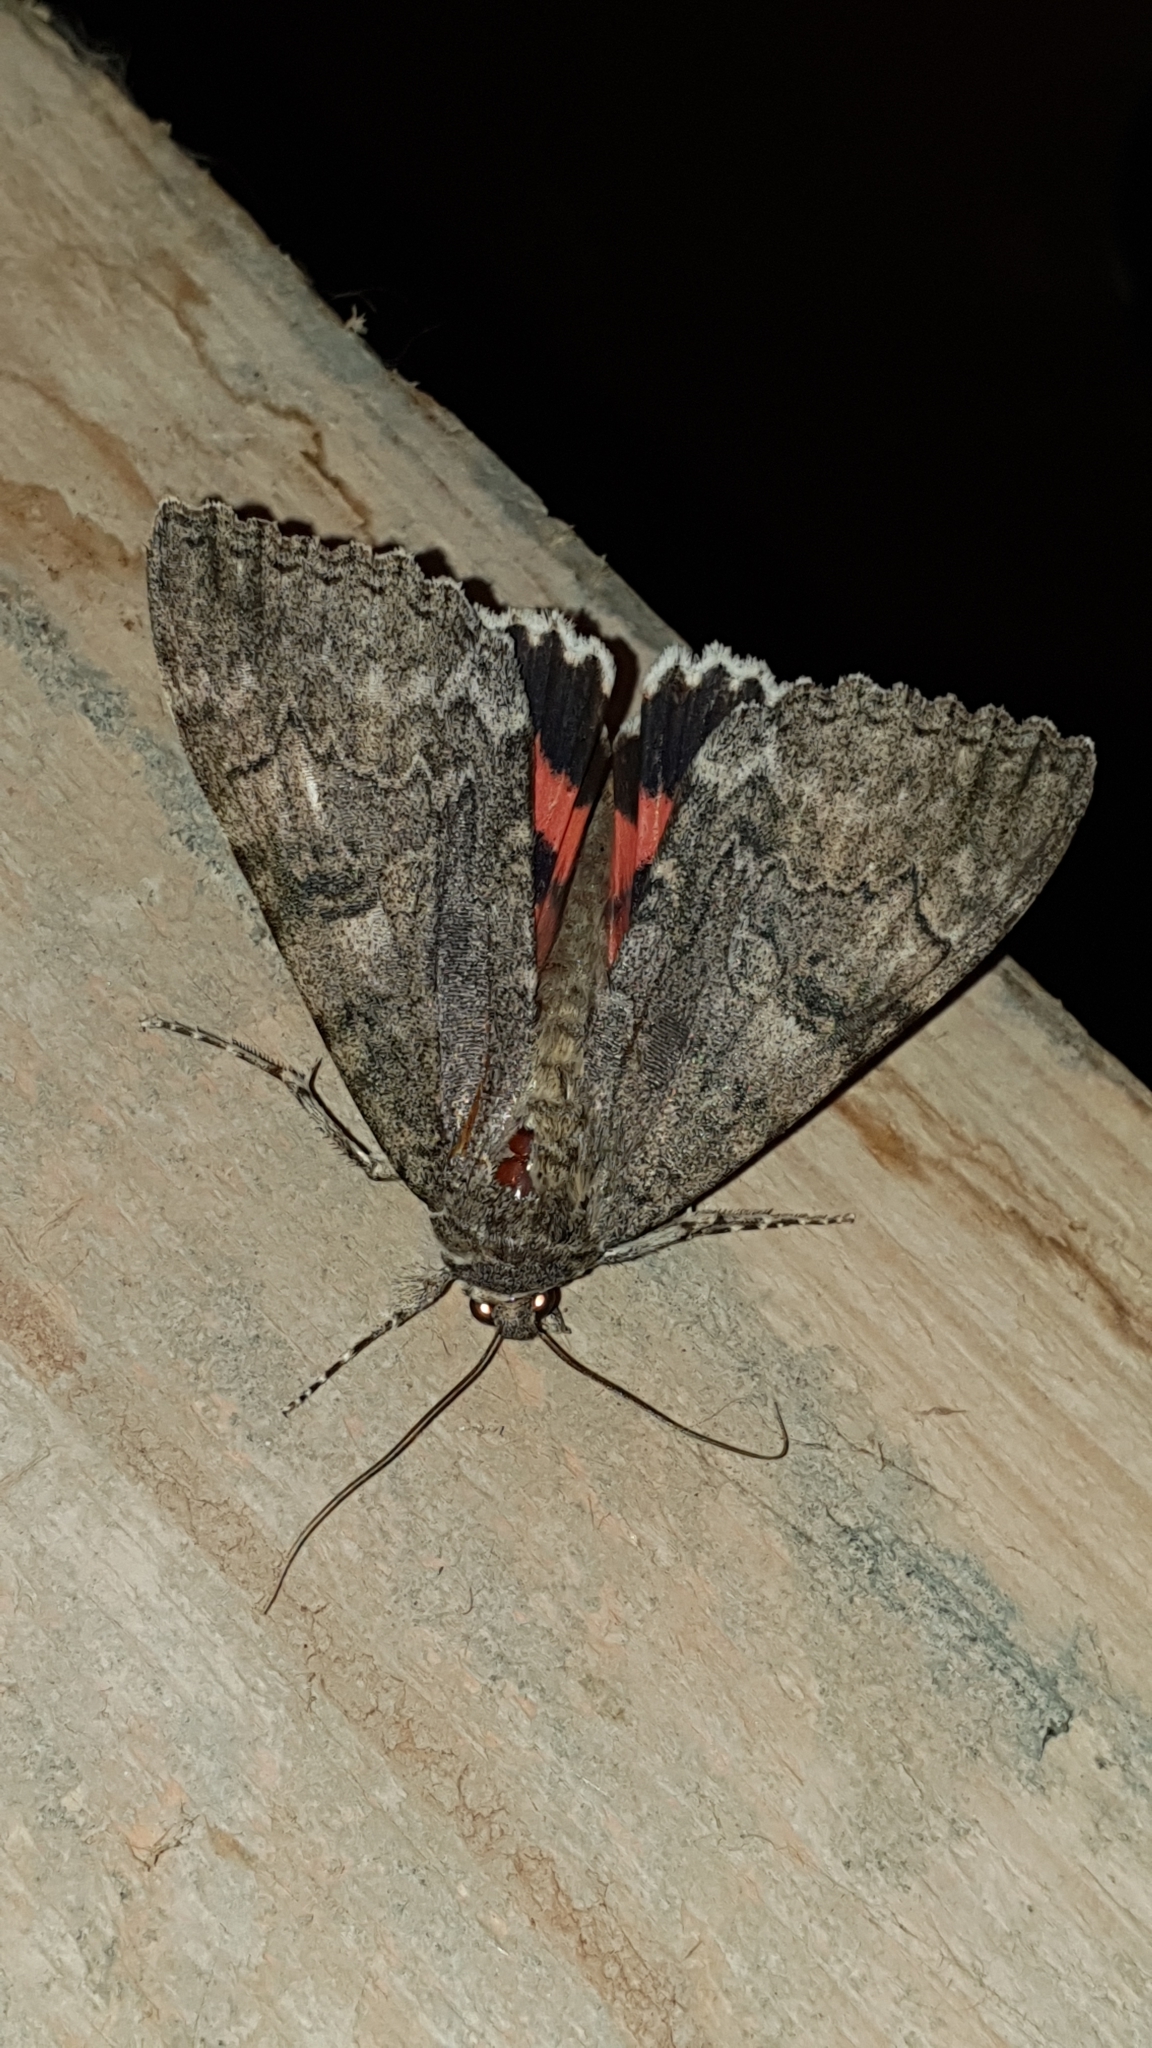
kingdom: Animalia
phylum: Arthropoda
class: Insecta
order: Lepidoptera
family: Erebidae
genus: Catocala
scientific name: Catocala nupta
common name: Red underwing
